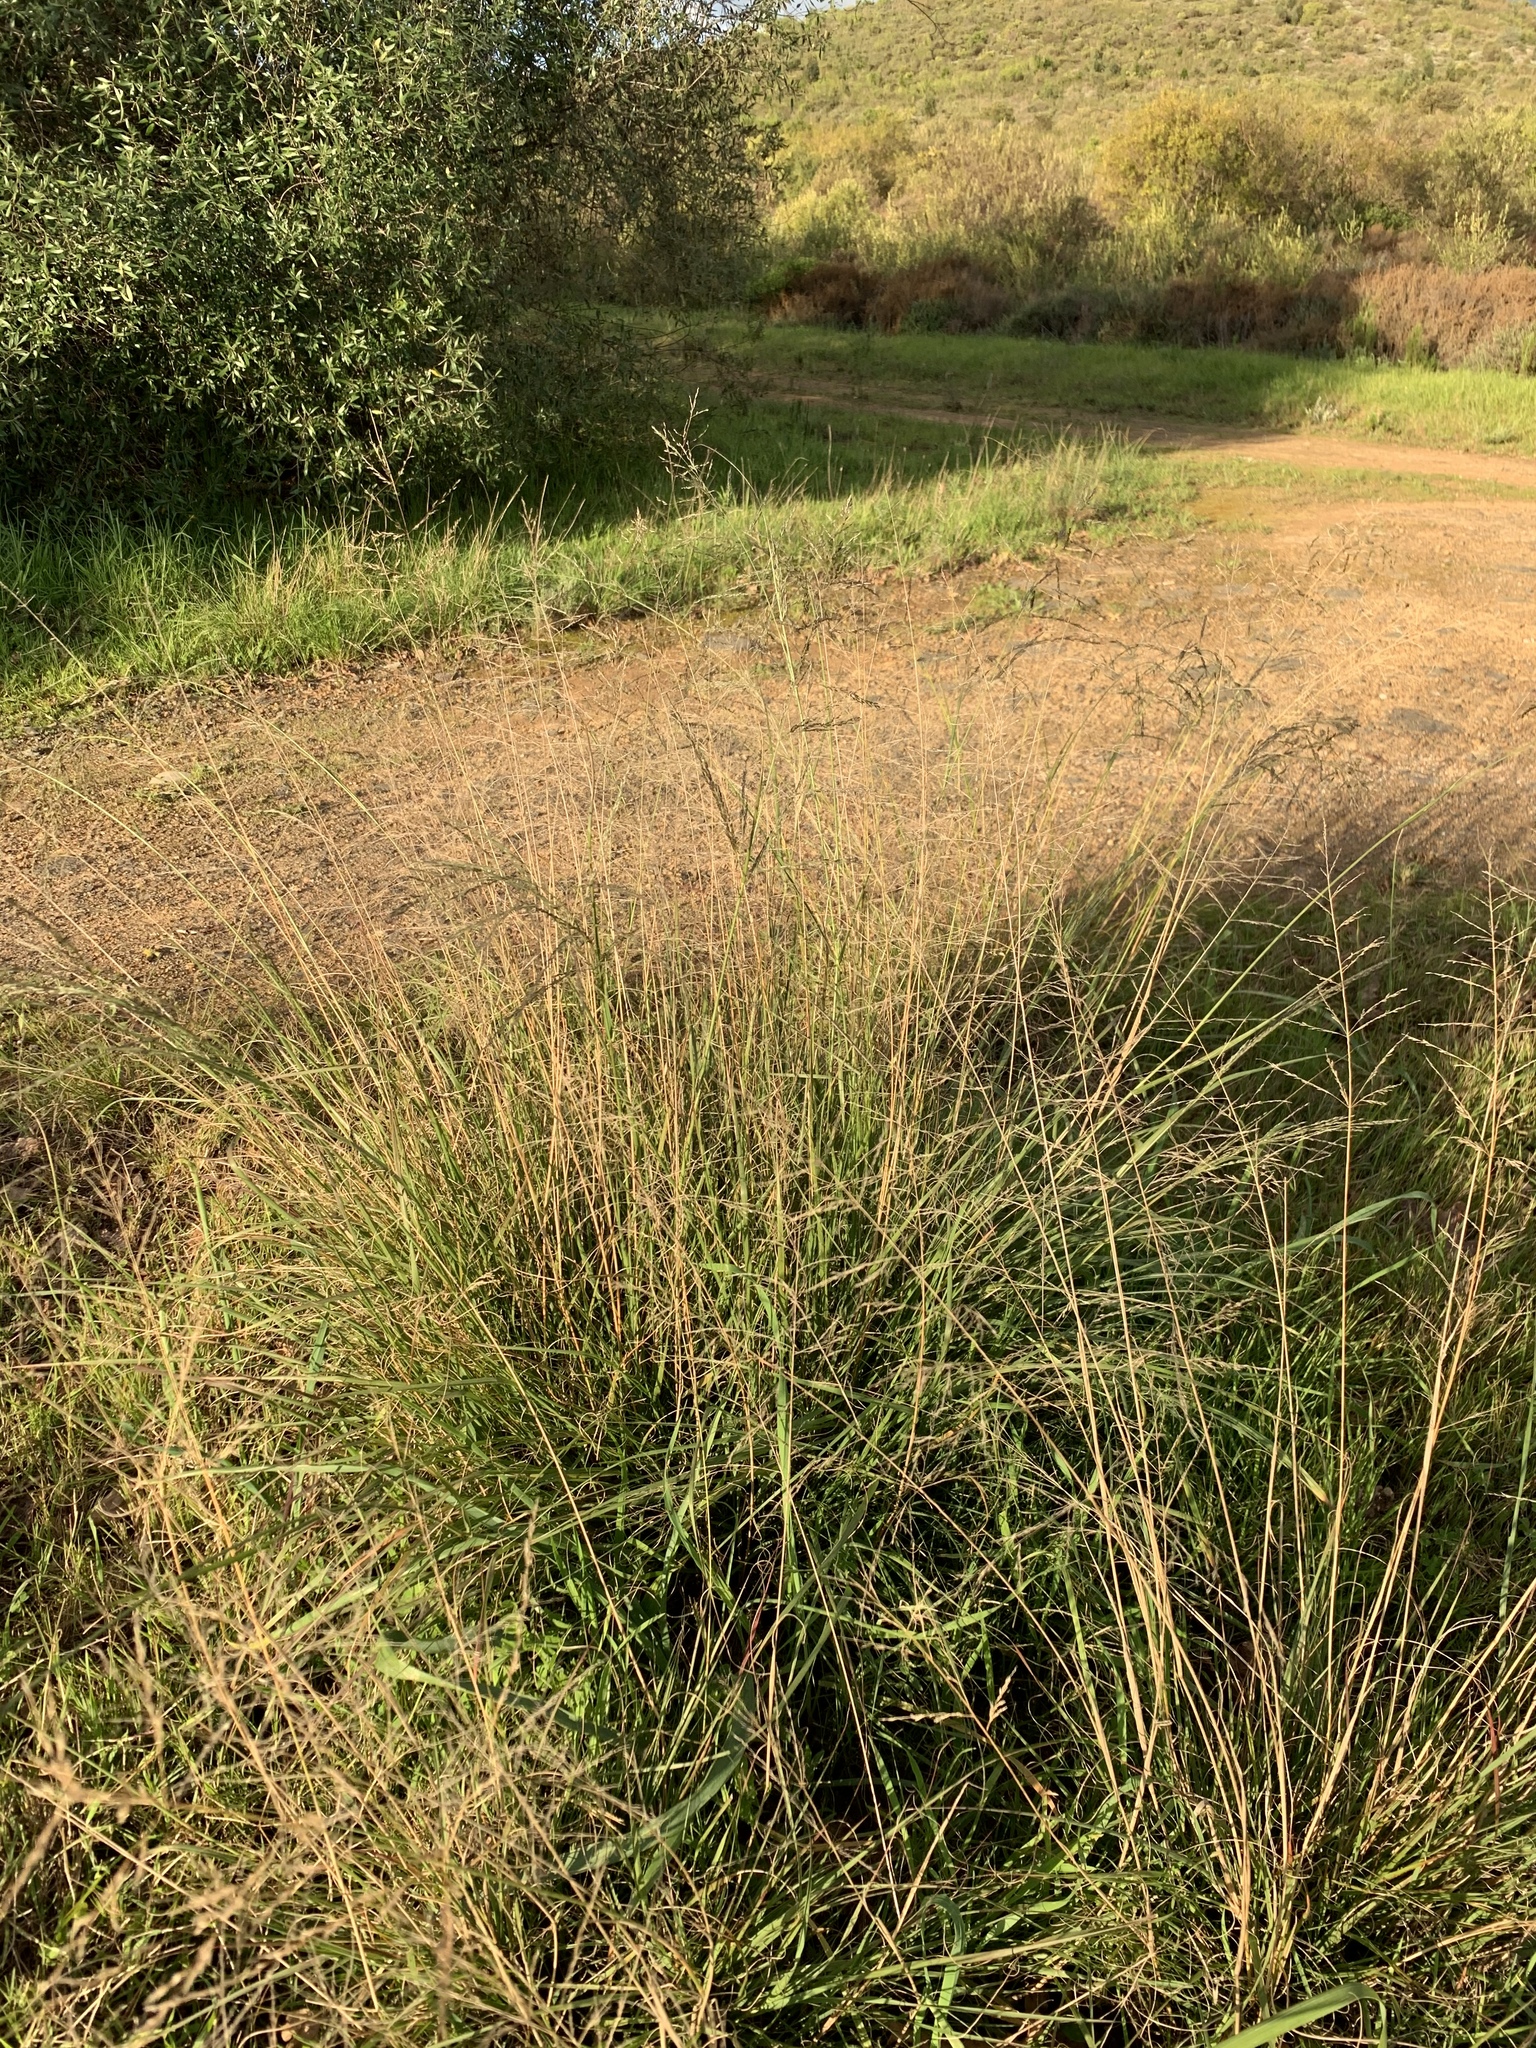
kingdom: Plantae
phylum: Tracheophyta
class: Liliopsida
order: Poales
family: Poaceae
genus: Eragrostis
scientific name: Eragrostis curvula
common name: African love-grass
